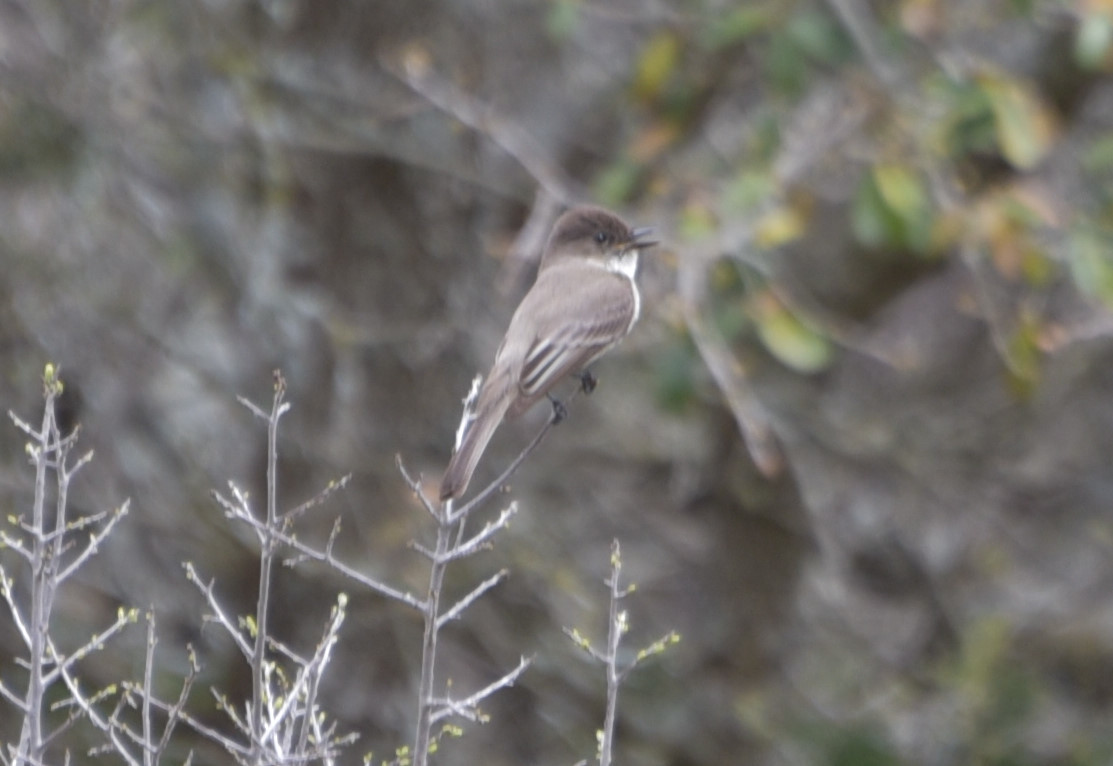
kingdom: Animalia
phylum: Chordata
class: Aves
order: Passeriformes
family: Tyrannidae
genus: Sayornis
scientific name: Sayornis phoebe
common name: Eastern phoebe
